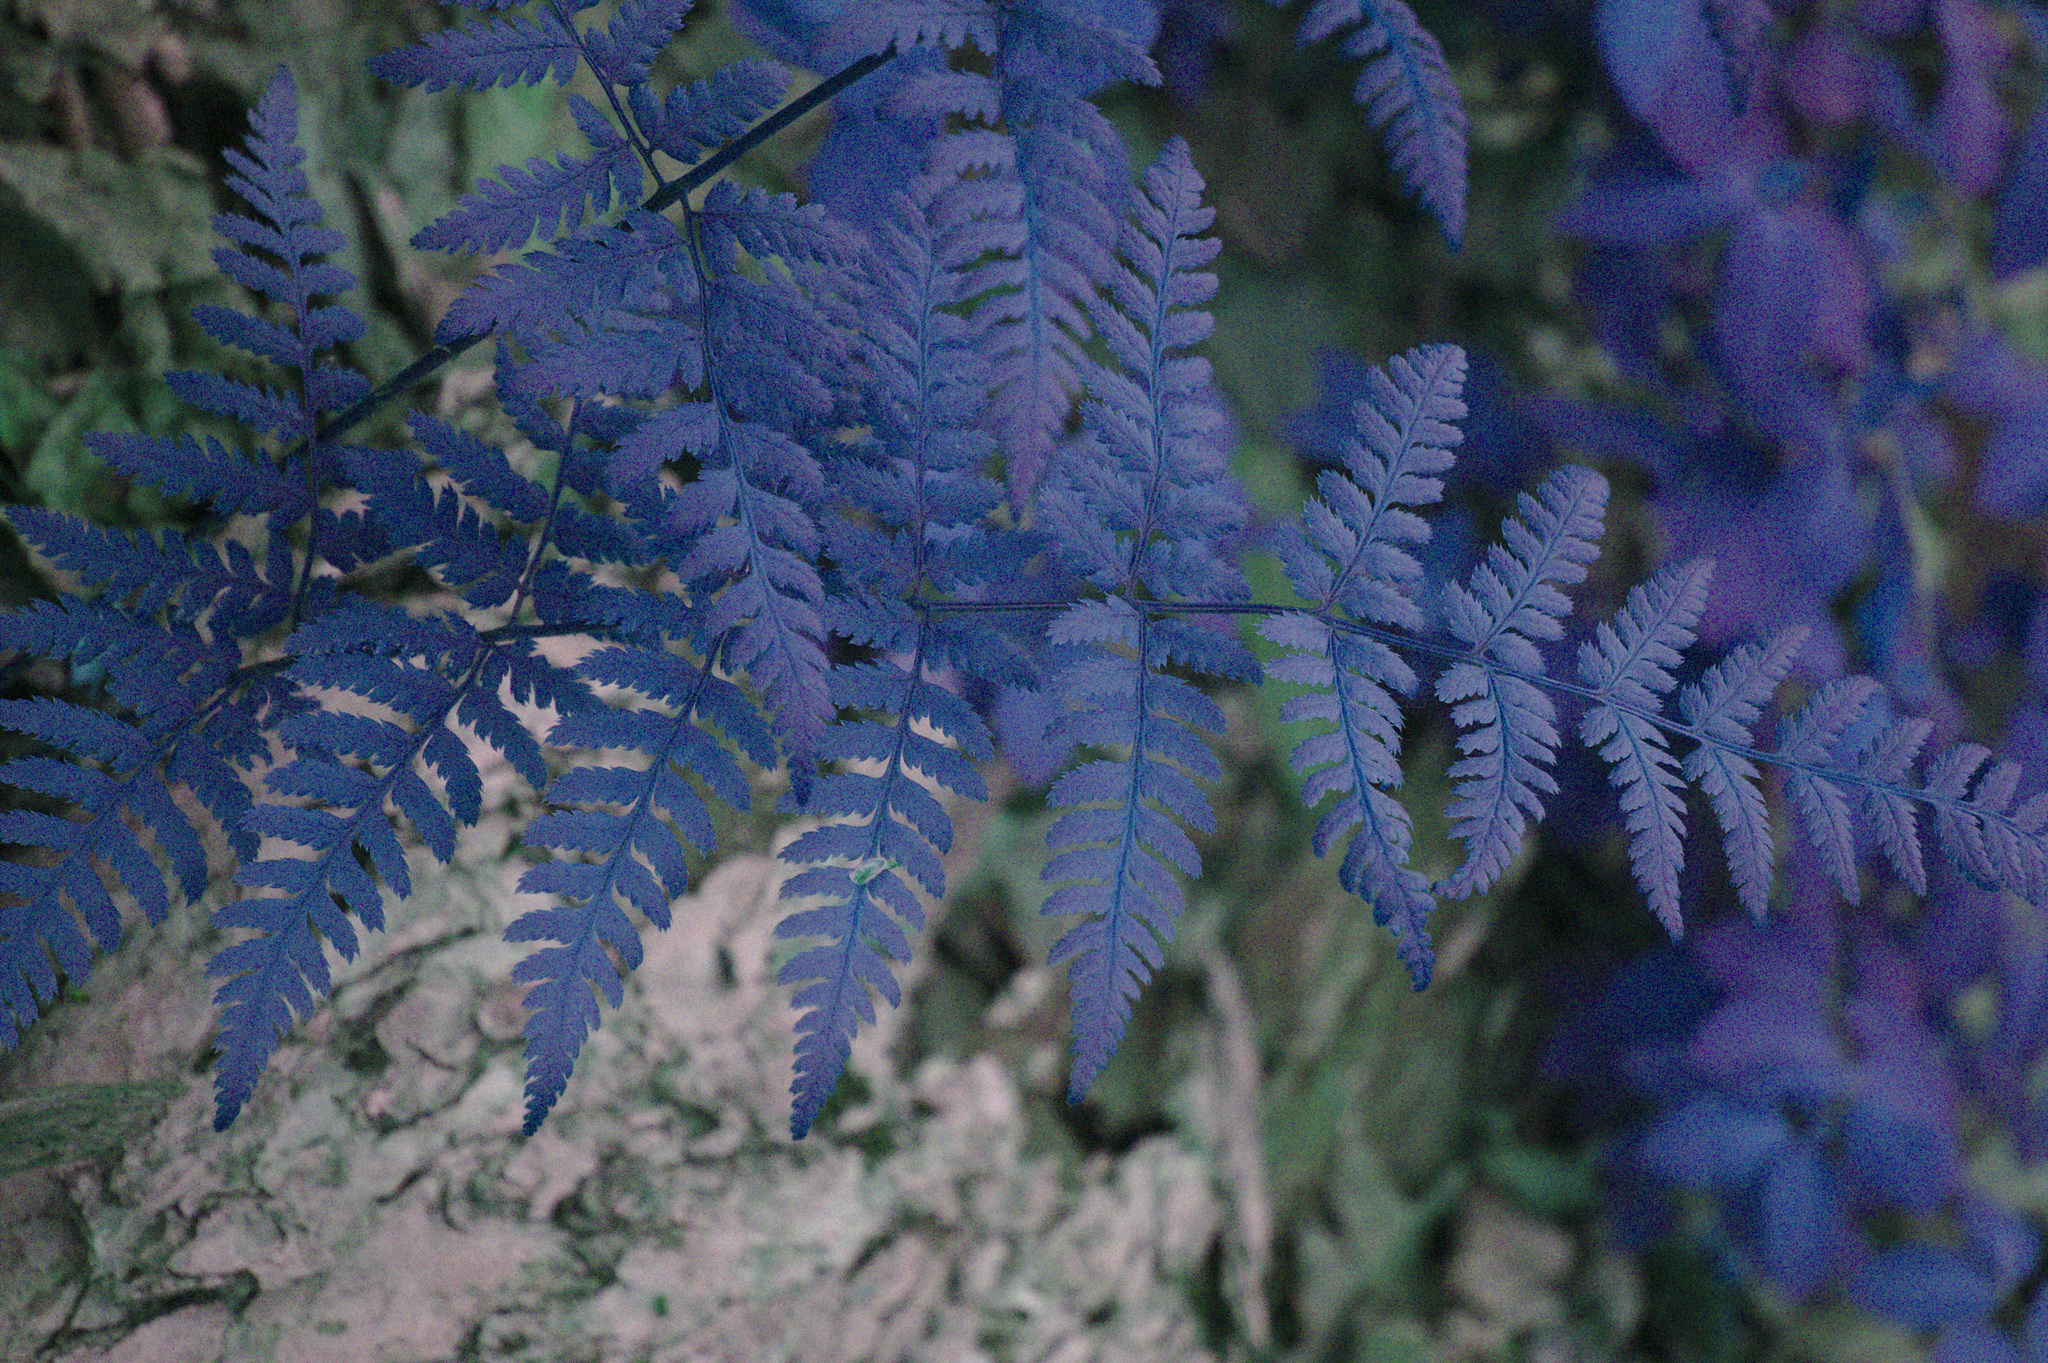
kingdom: Plantae
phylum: Tracheophyta
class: Polypodiopsida
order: Polypodiales
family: Dryopteridaceae
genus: Dryopteris
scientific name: Dryopteris carthusiana
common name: Narrow buckler-fern
